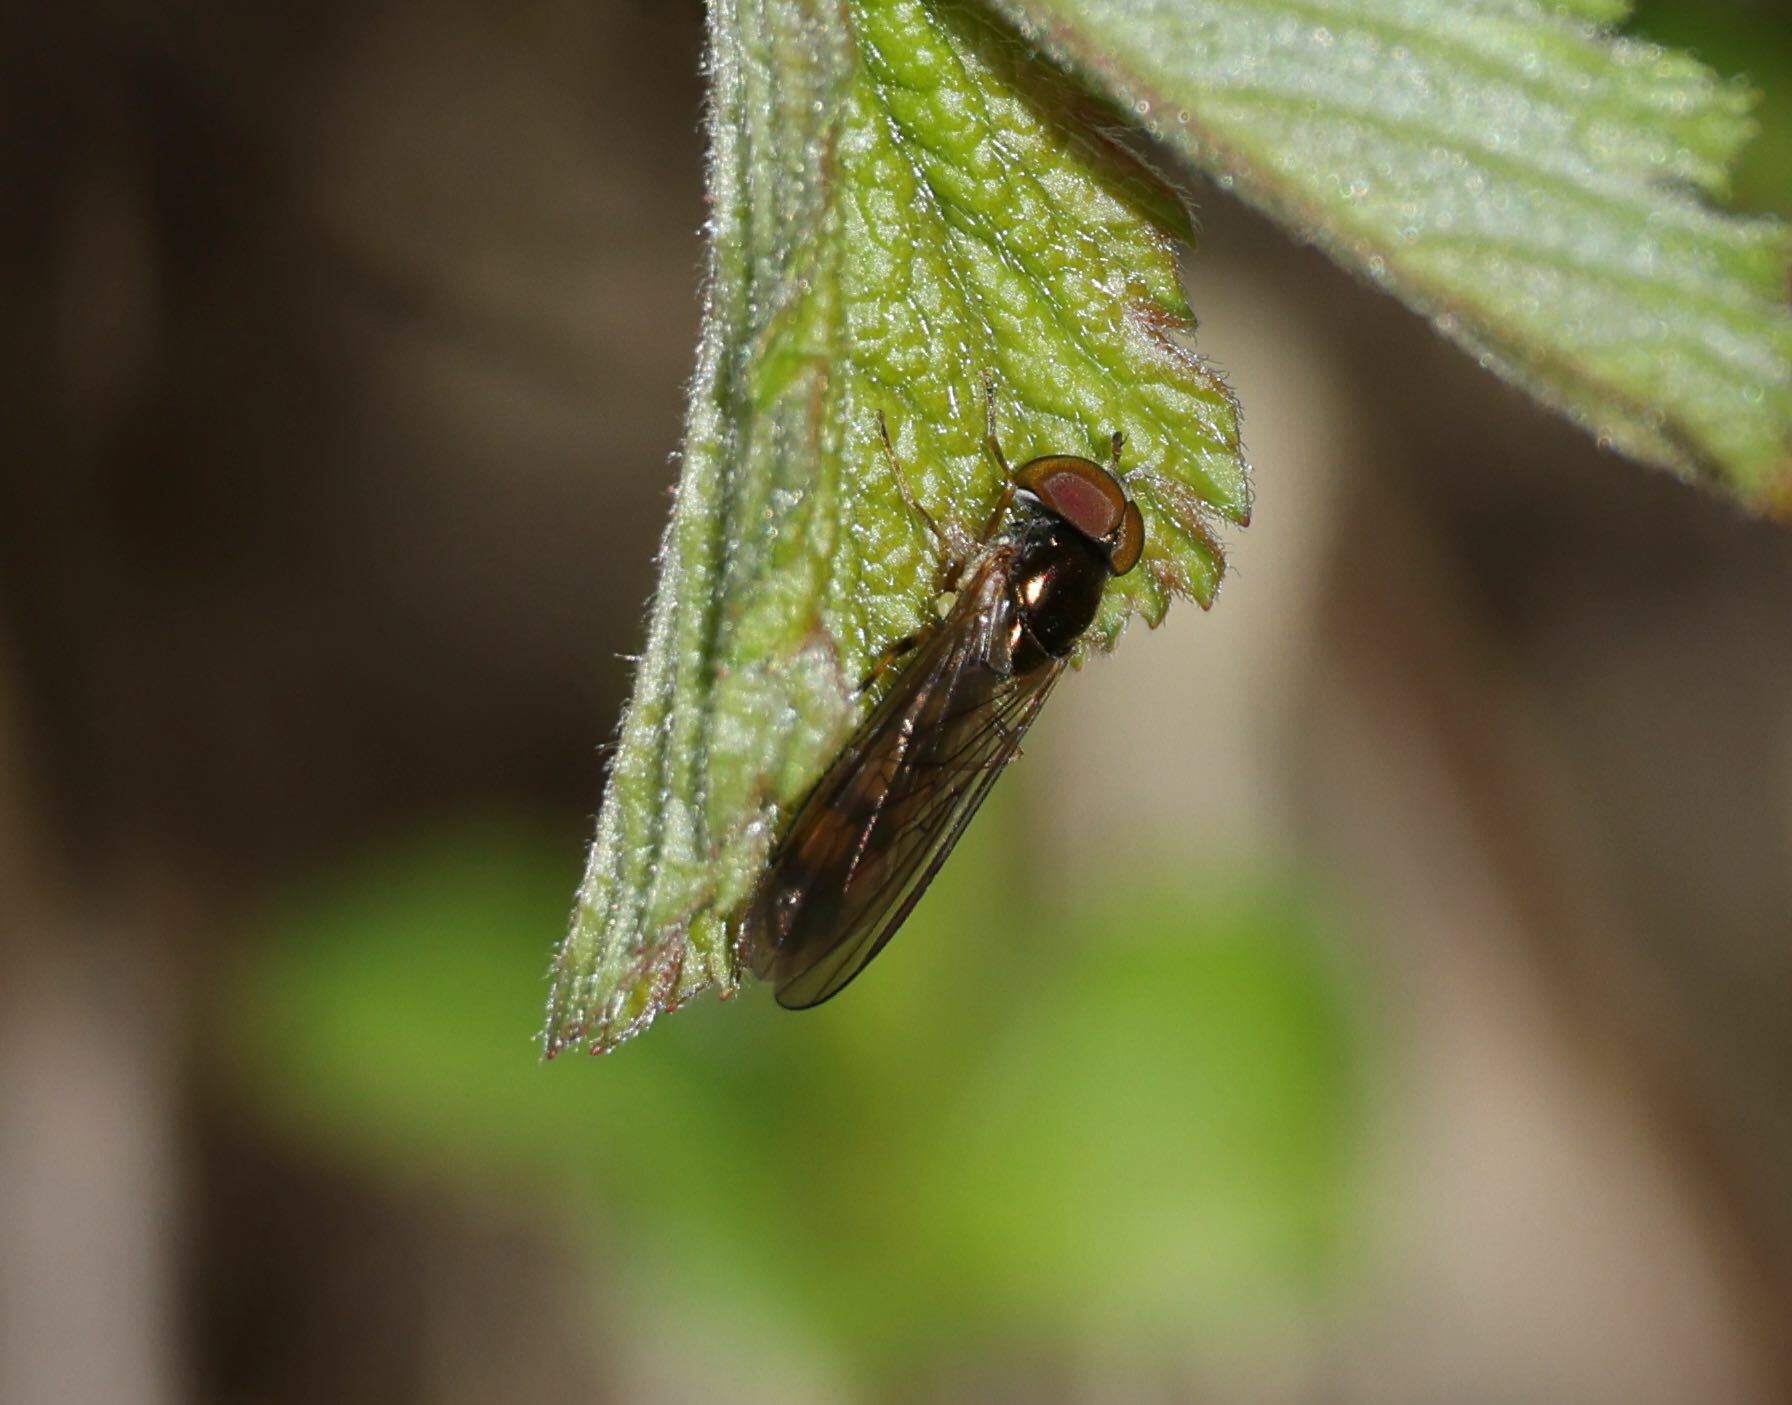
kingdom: Animalia
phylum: Arthropoda
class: Insecta
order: Diptera
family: Syrphidae
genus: Melanostoma
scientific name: Melanostoma
